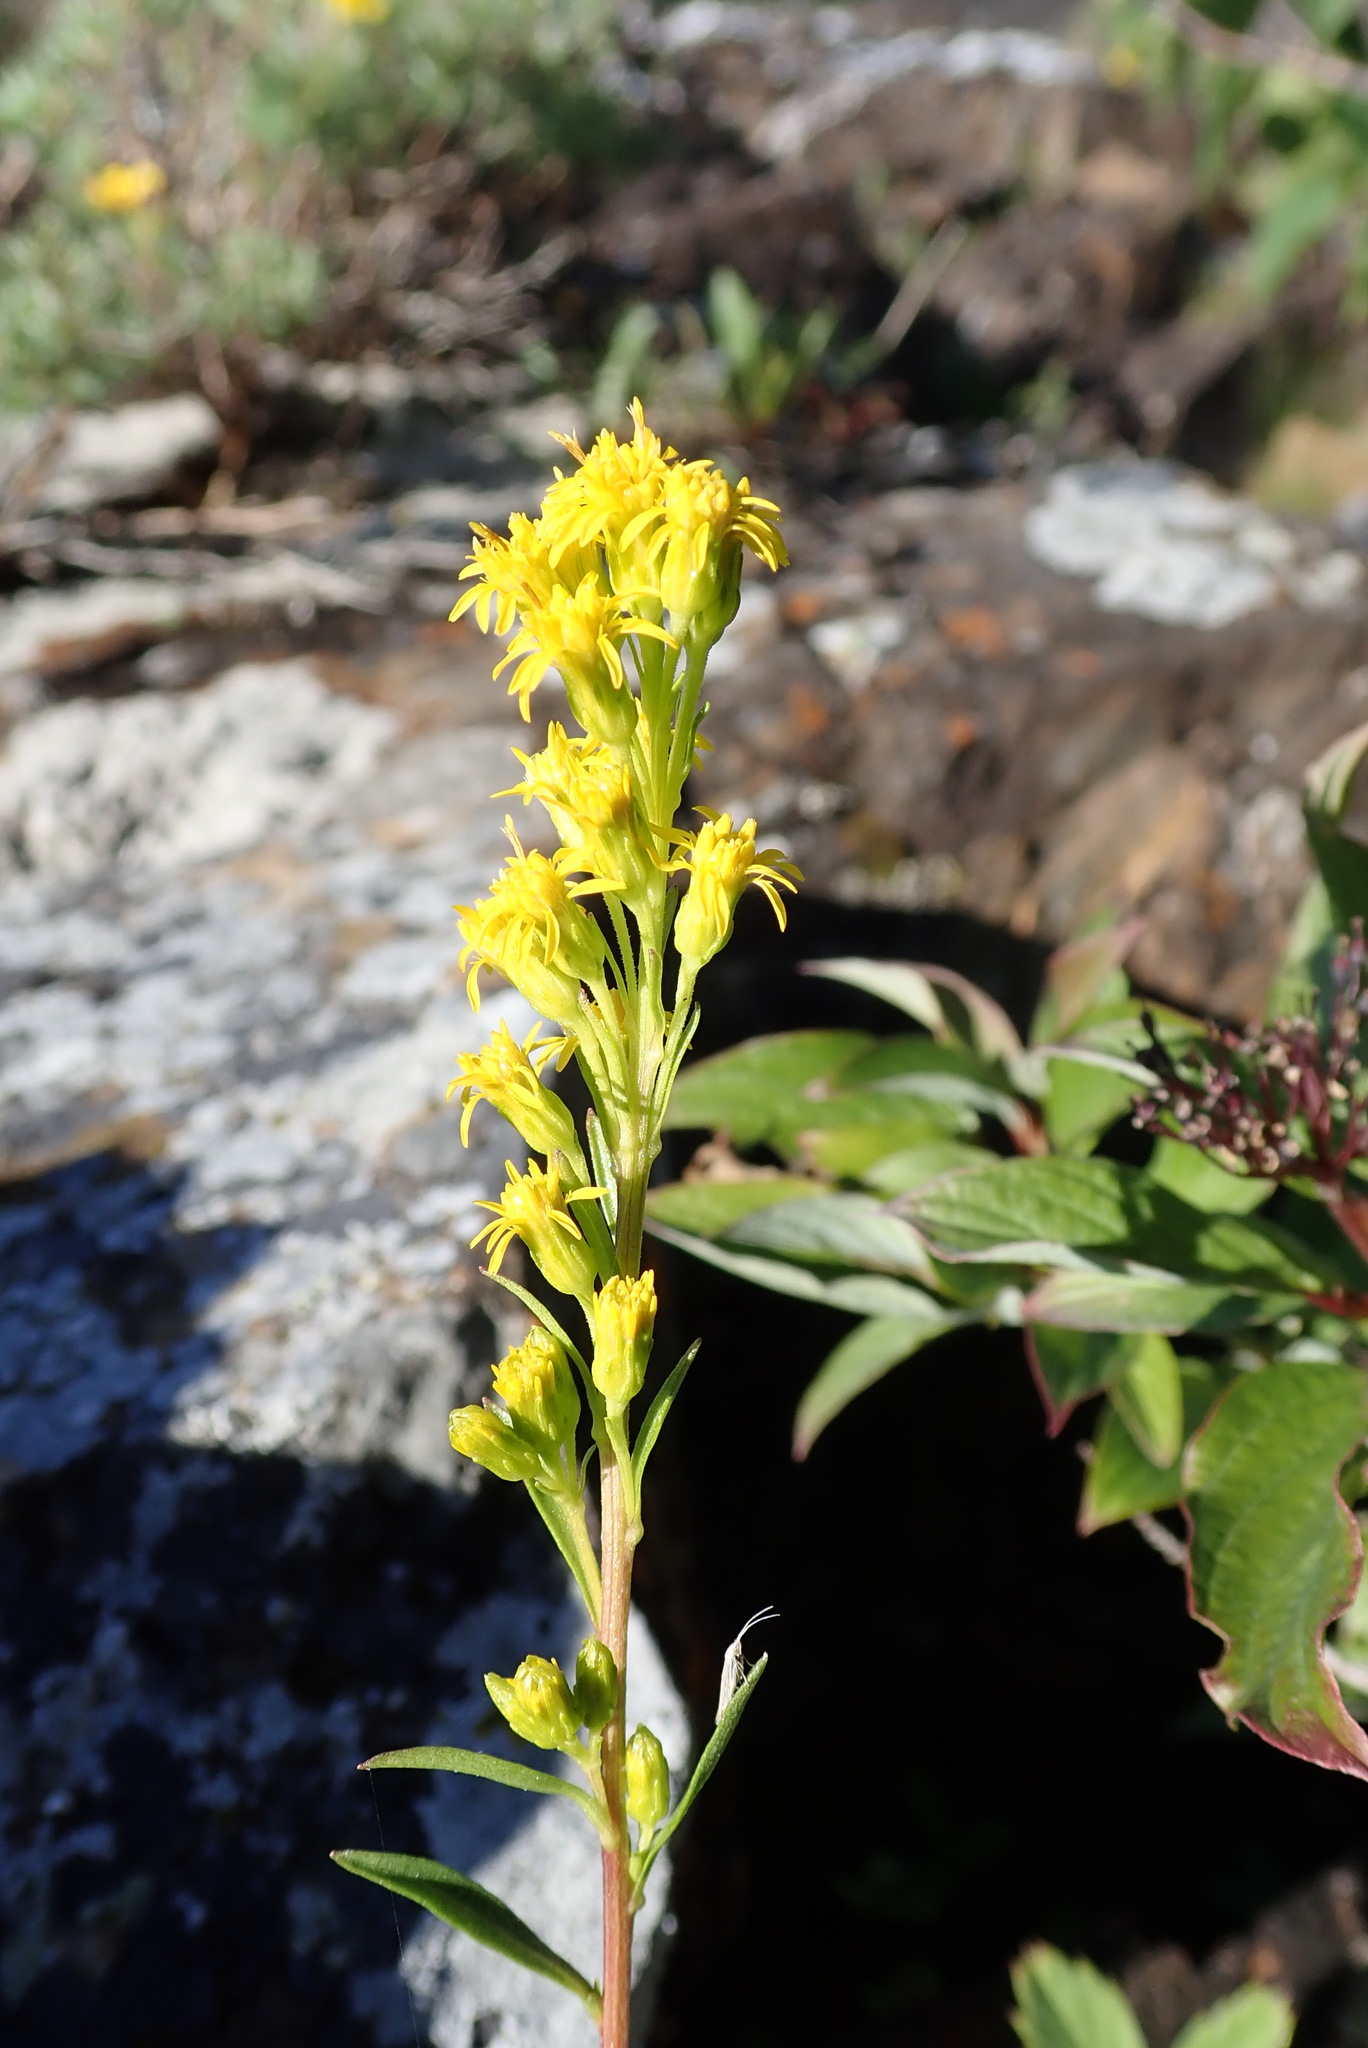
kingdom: Plantae
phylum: Tracheophyta
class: Magnoliopsida
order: Asterales
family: Asteraceae
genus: Solidago
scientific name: Solidago glutinosa
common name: Decumbent goldenrod
